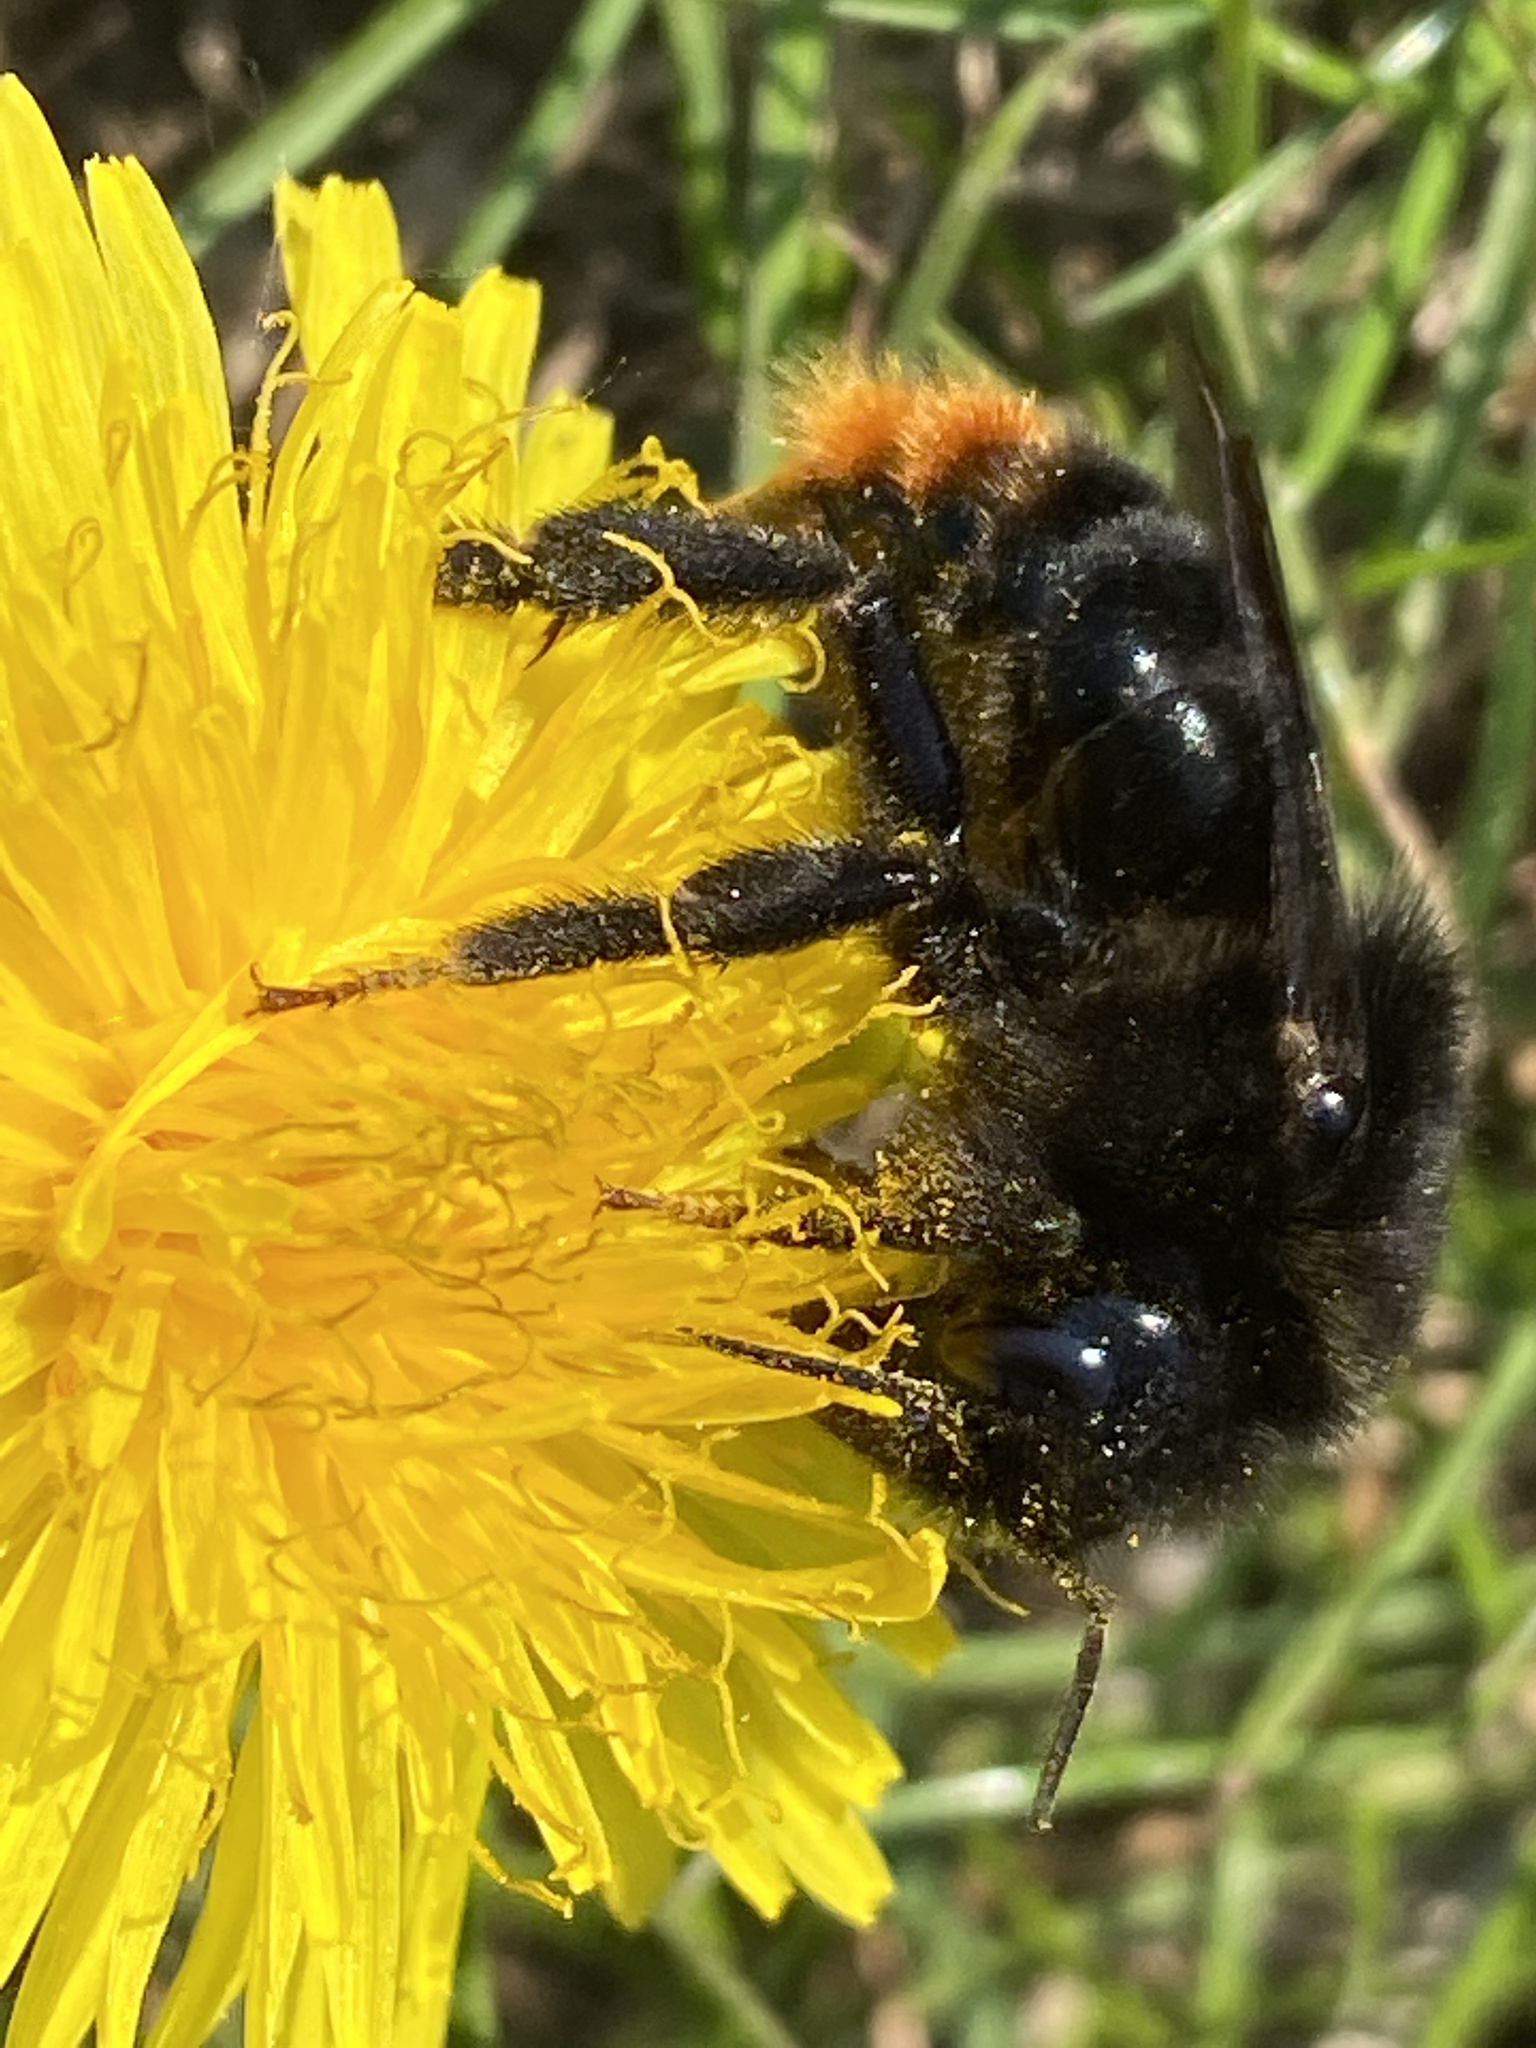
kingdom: Animalia
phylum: Arthropoda
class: Insecta
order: Hymenoptera
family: Apidae
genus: Bombus
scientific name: Bombus rupestris
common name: Hill cuckoo-bee
